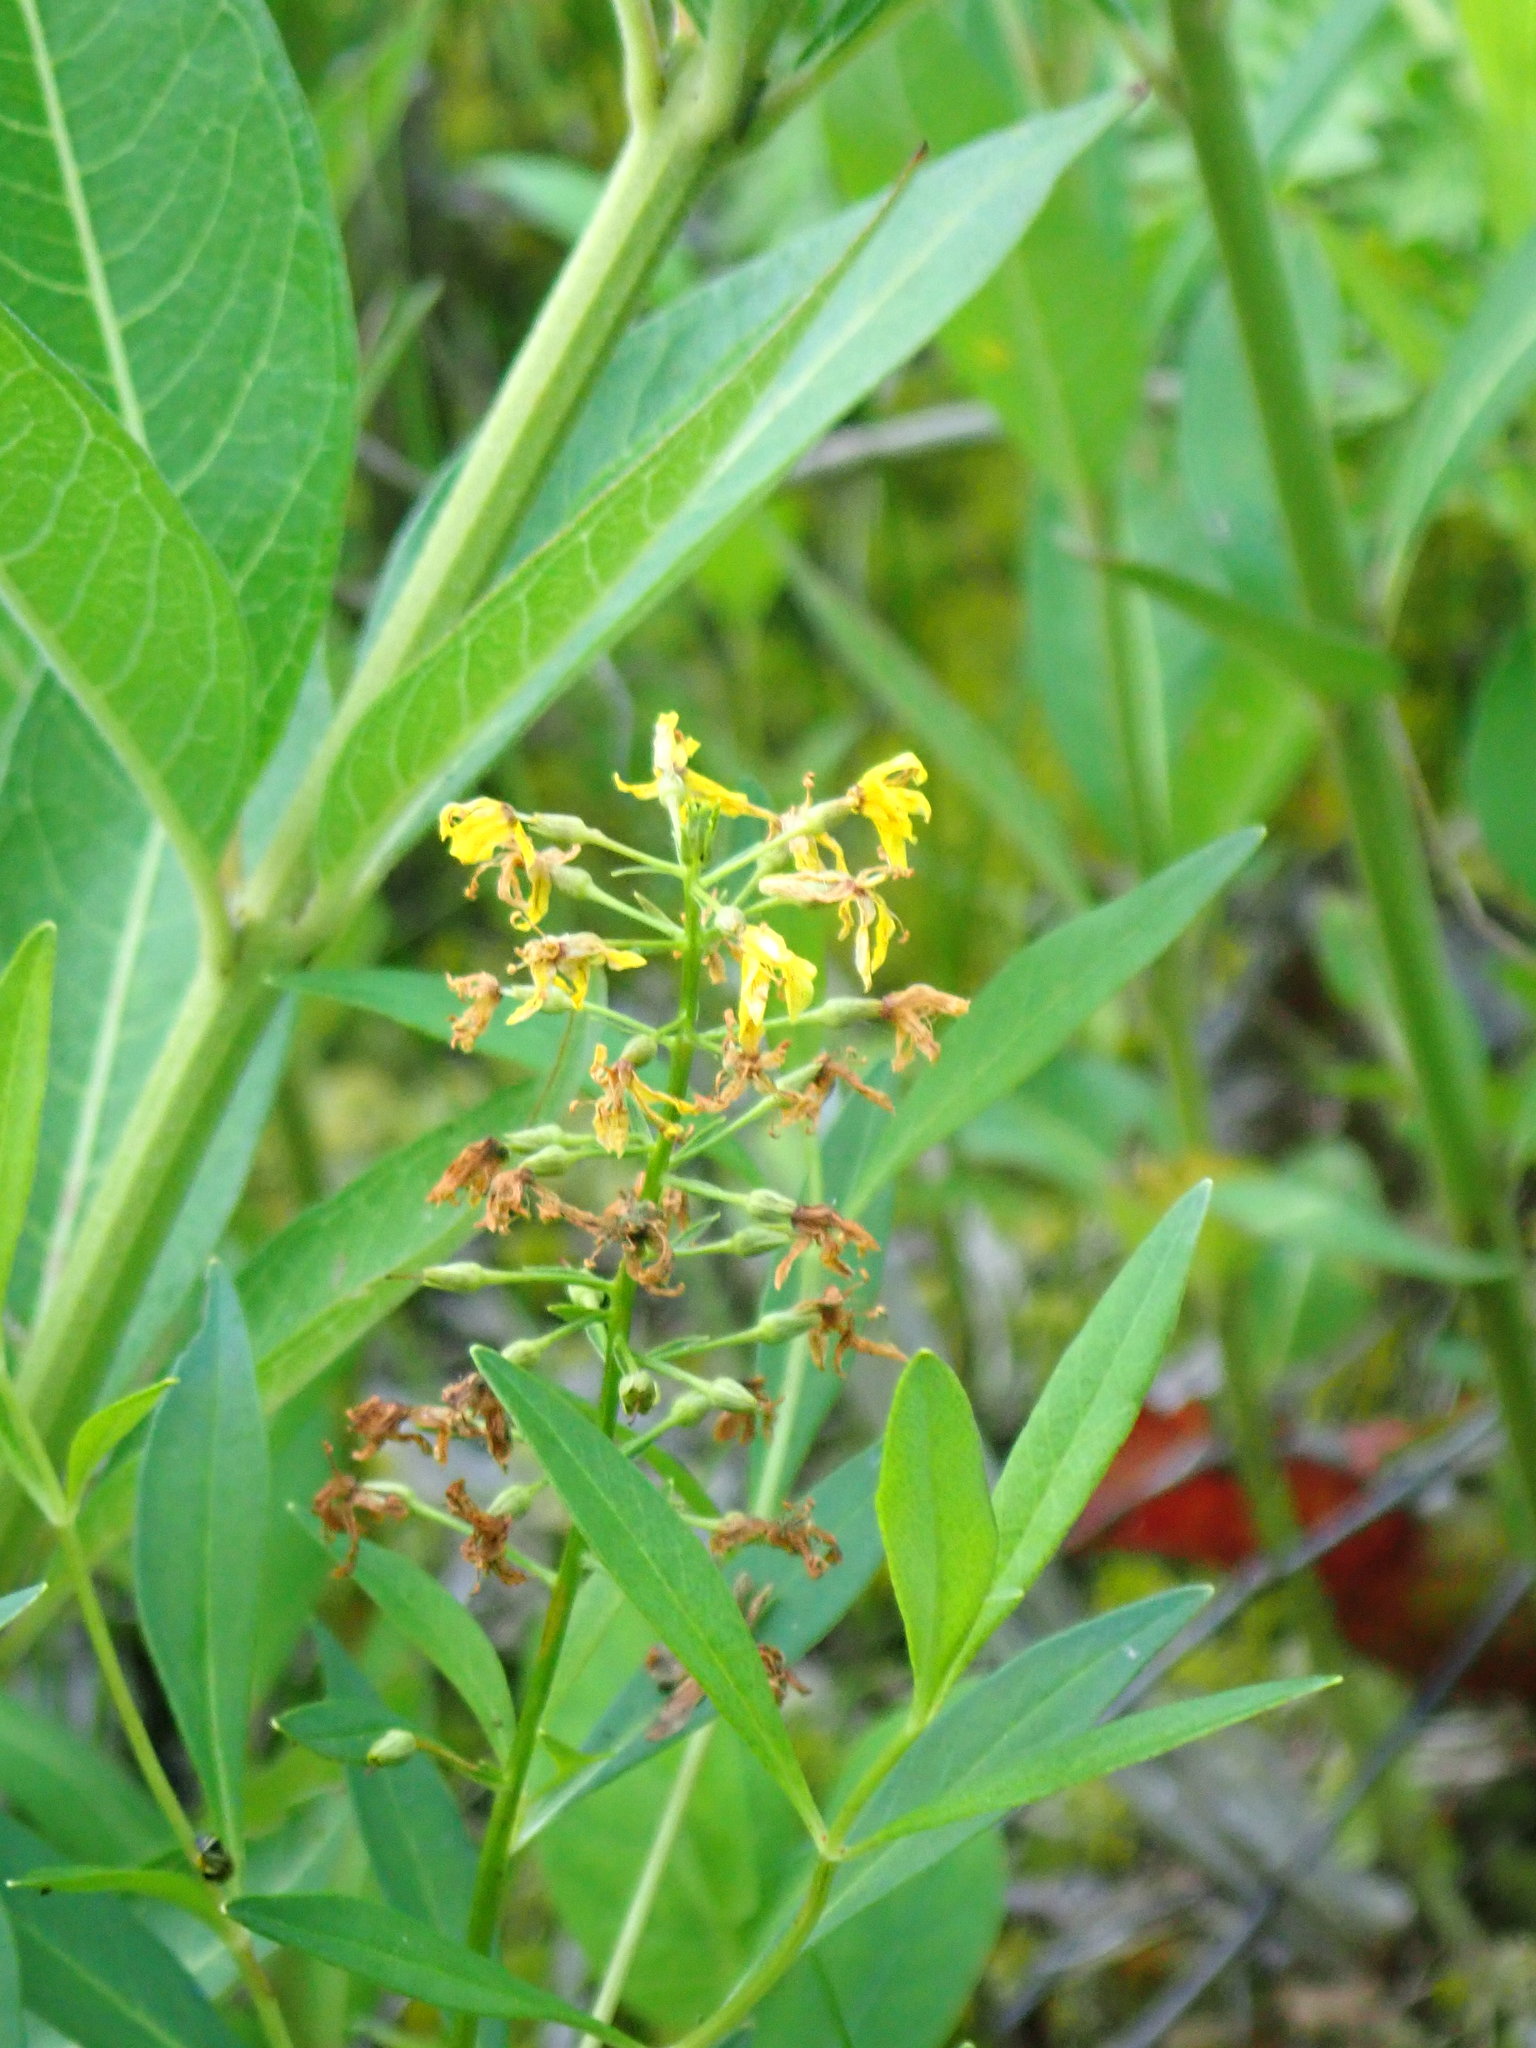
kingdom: Plantae
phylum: Tracheophyta
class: Magnoliopsida
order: Ericales
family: Primulaceae
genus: Lysimachia
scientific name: Lysimachia terrestris
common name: Lake loosestrife
